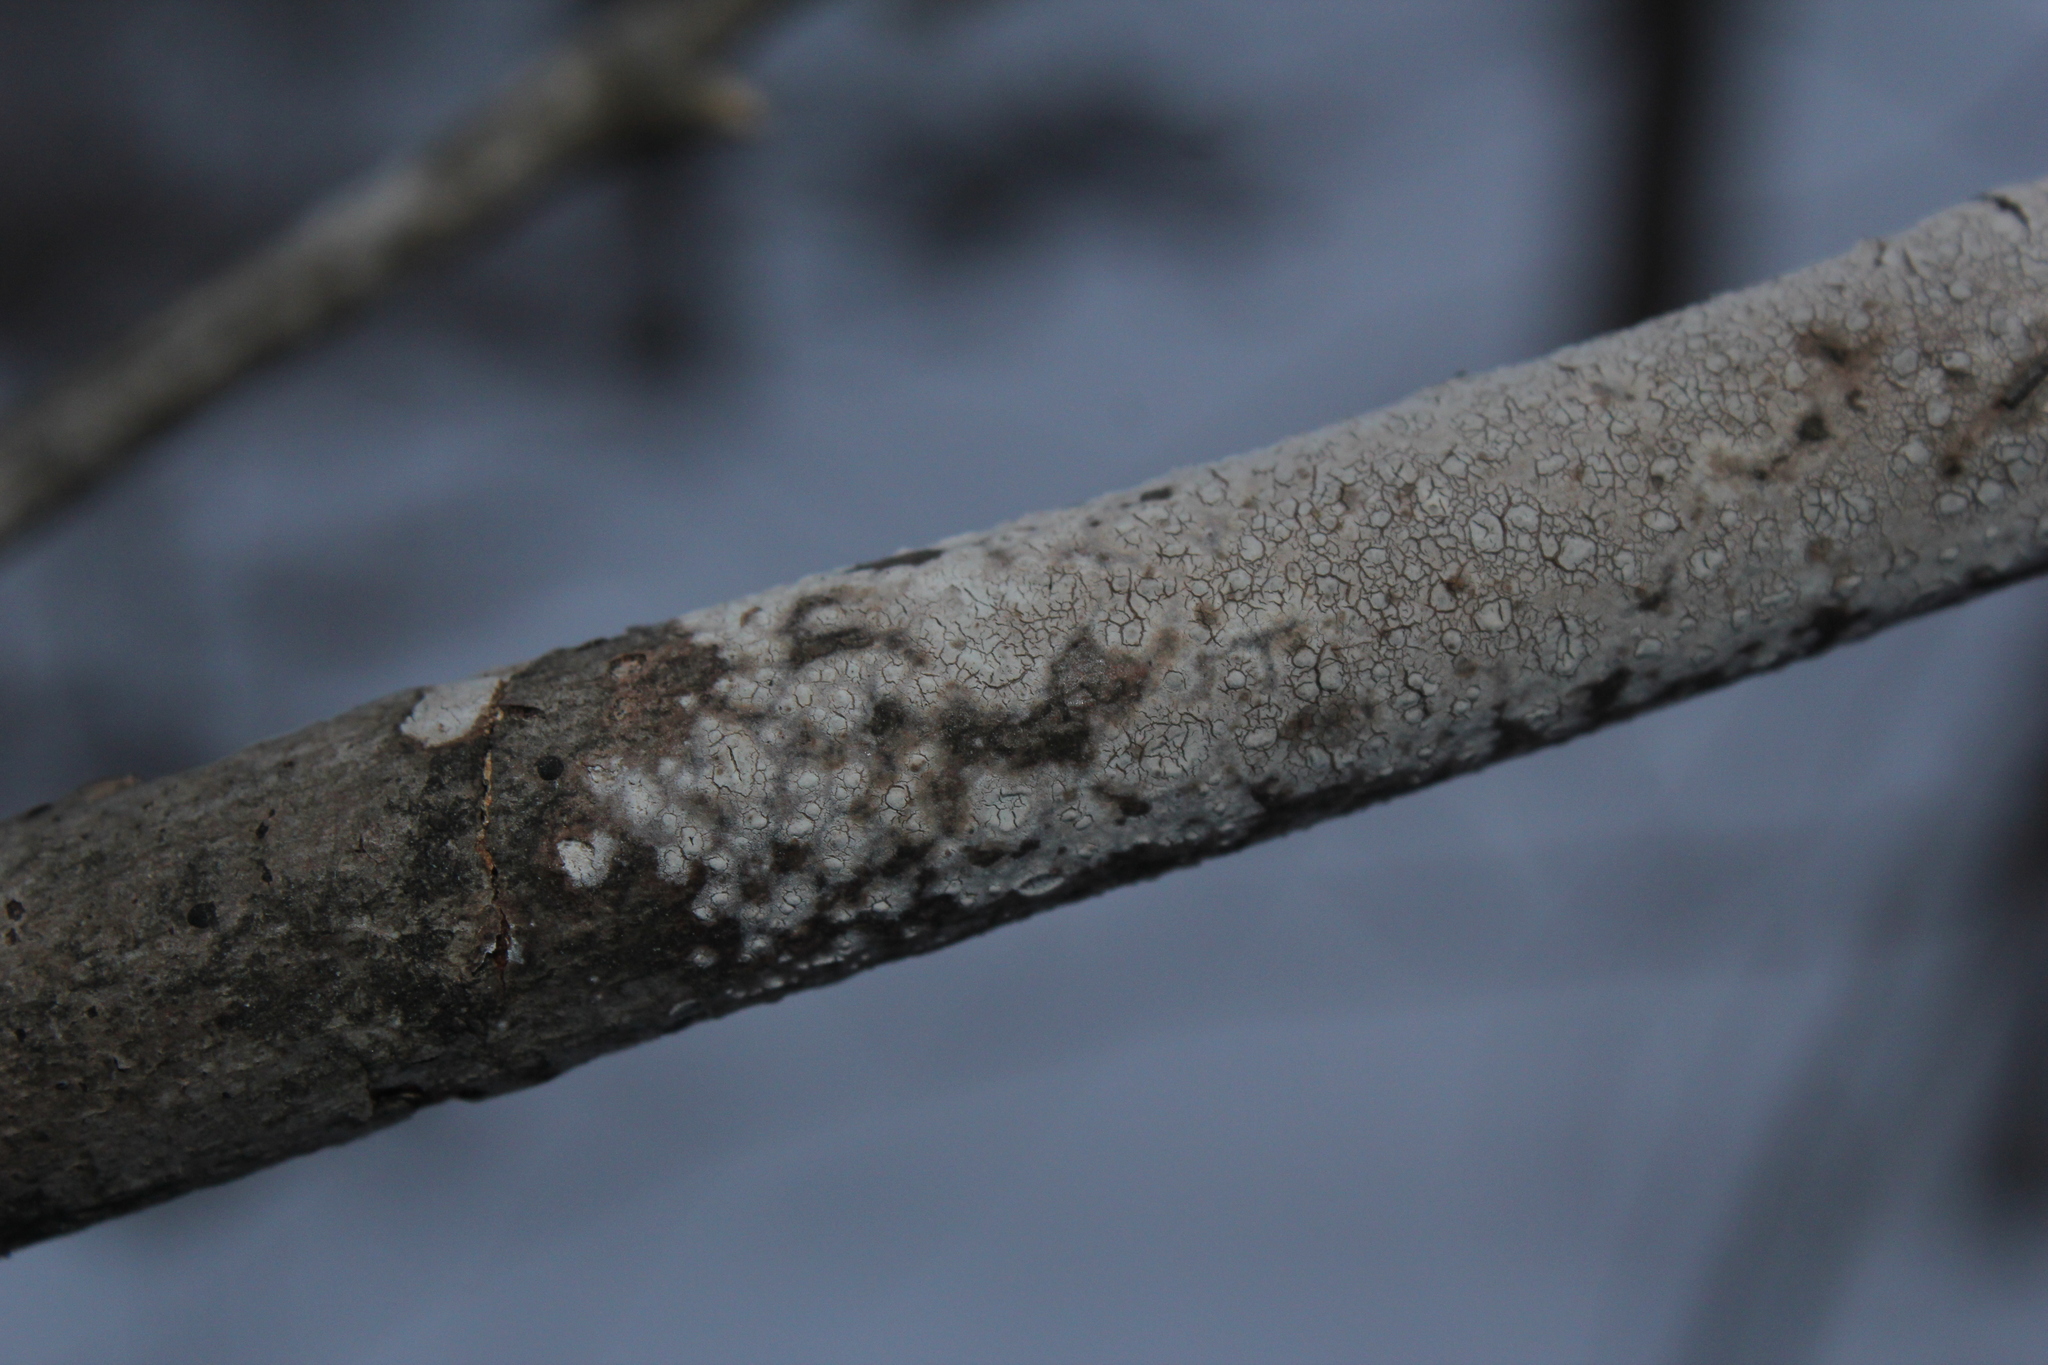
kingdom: Fungi
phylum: Basidiomycota
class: Agaricomycetes
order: Russulales
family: Peniophoraceae
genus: Peniophora
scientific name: Peniophora cinerea
